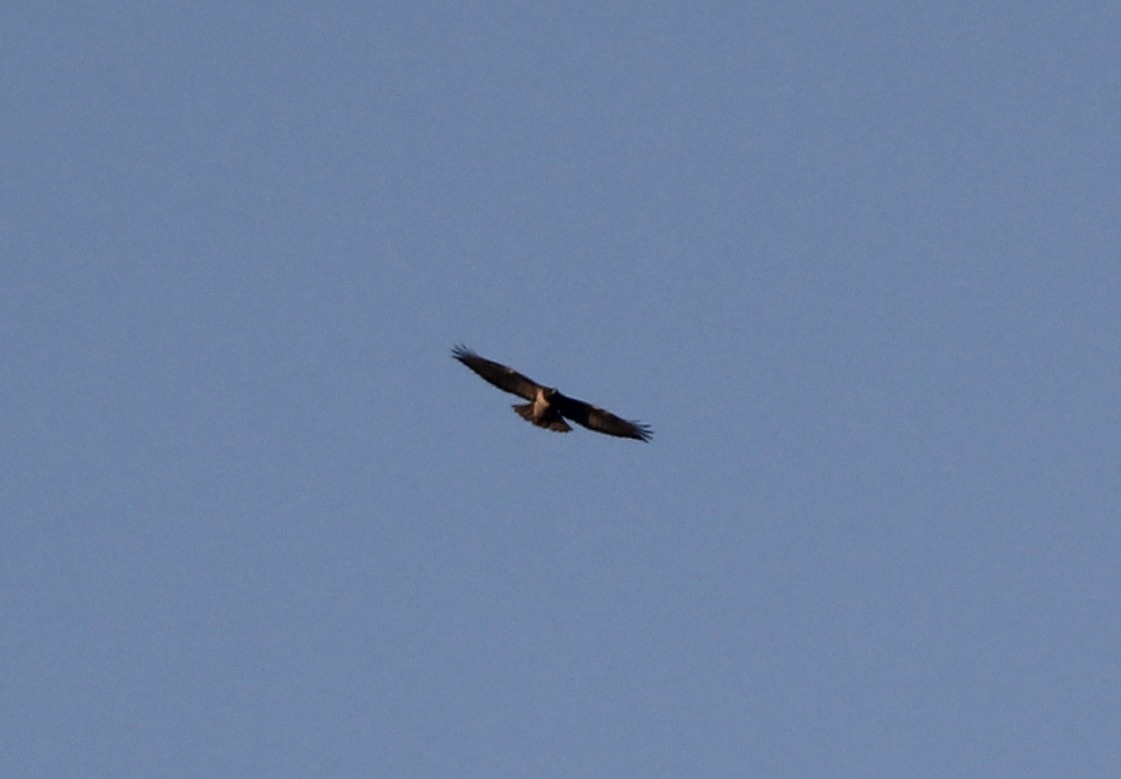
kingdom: Animalia
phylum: Chordata
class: Aves
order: Accipitriformes
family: Accipitridae
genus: Buteo
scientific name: Buteo jamaicensis
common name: Red-tailed hawk
